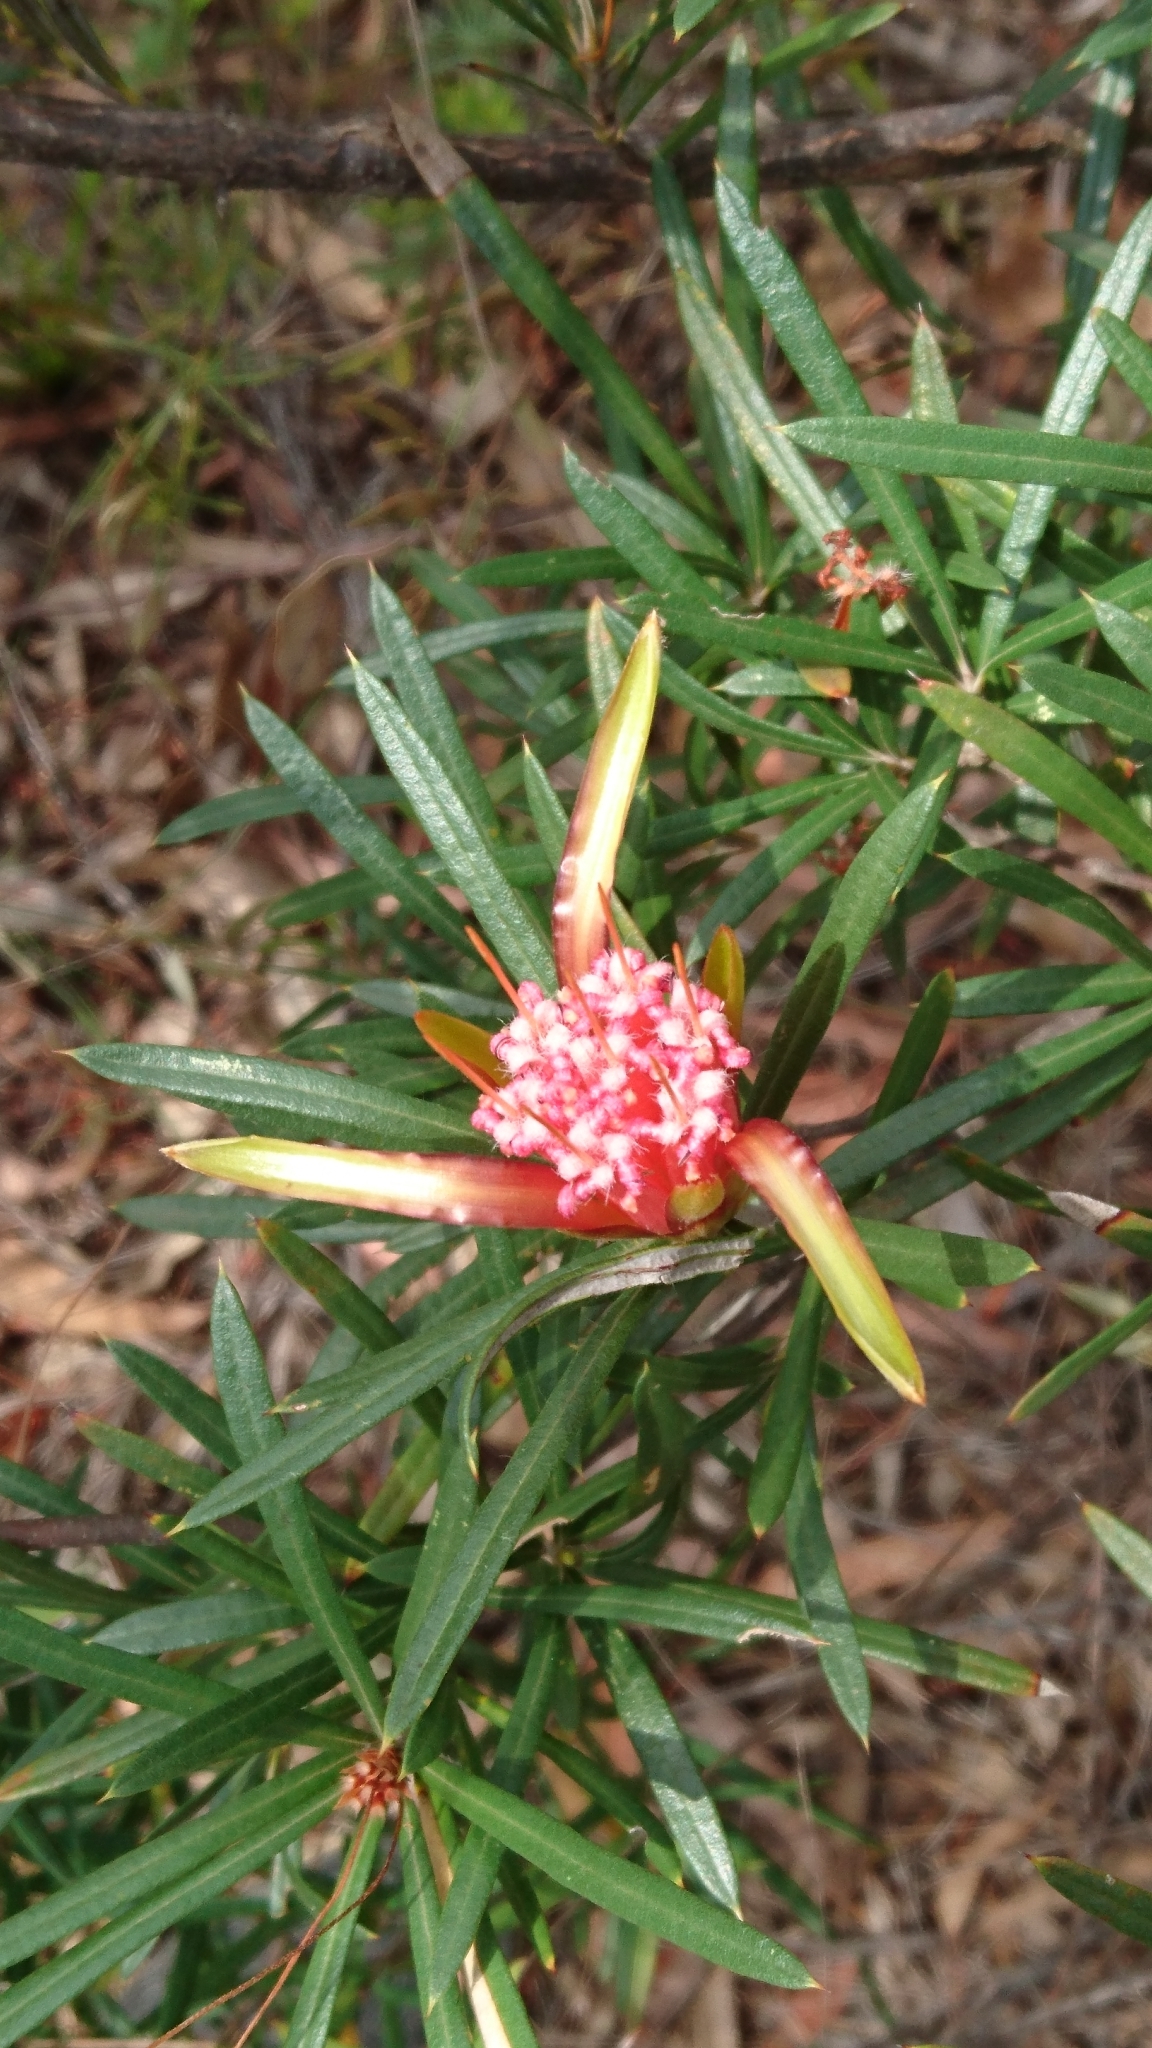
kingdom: Plantae
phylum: Tracheophyta
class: Magnoliopsida
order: Proteales
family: Proteaceae
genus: Lambertia
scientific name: Lambertia formosa
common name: Mountain-devil
